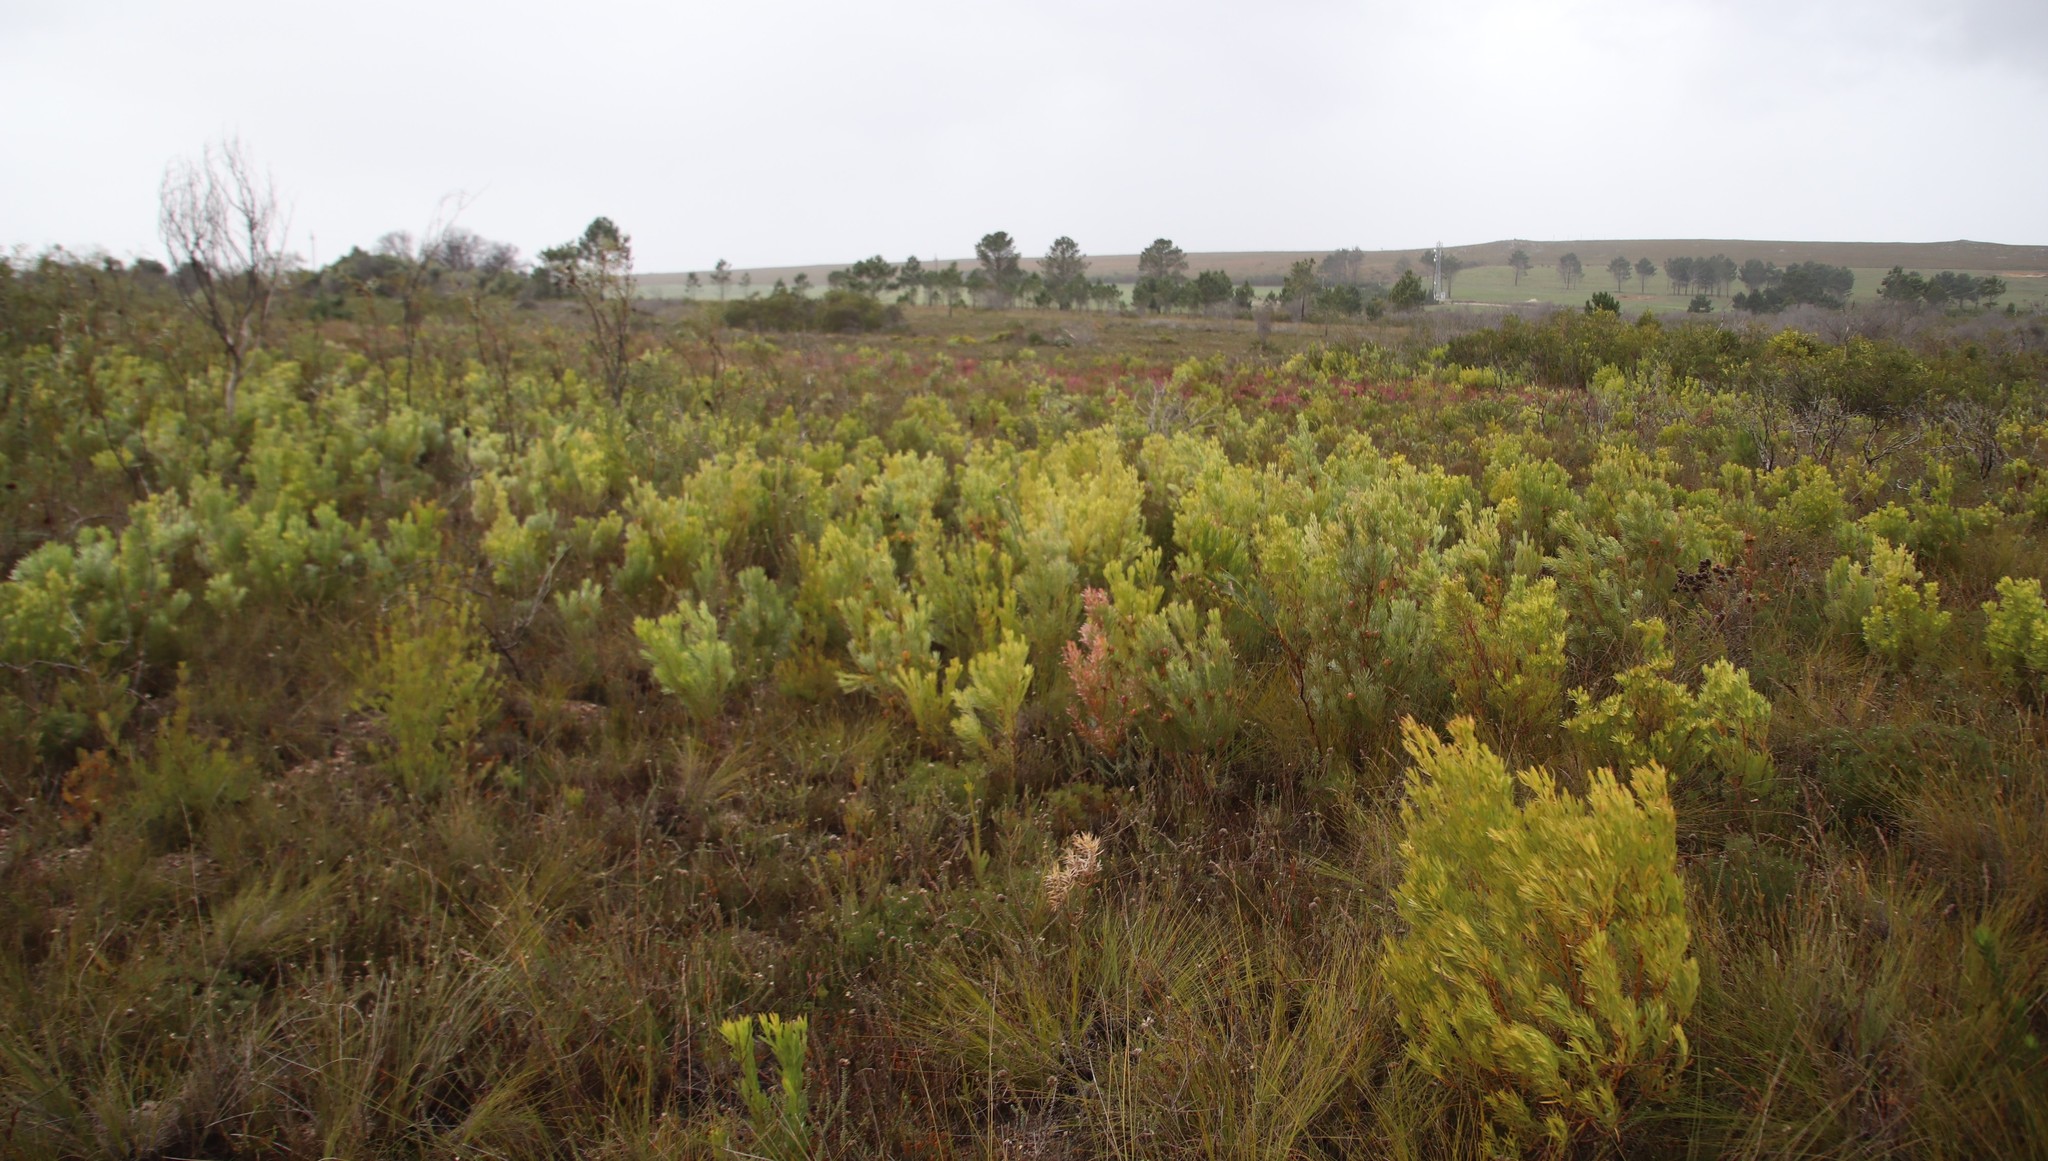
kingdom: Plantae
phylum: Tracheophyta
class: Magnoliopsida
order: Proteales
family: Proteaceae
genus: Leucadendron
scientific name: Leucadendron xanthoconus
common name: Sickle-leaf conebush
